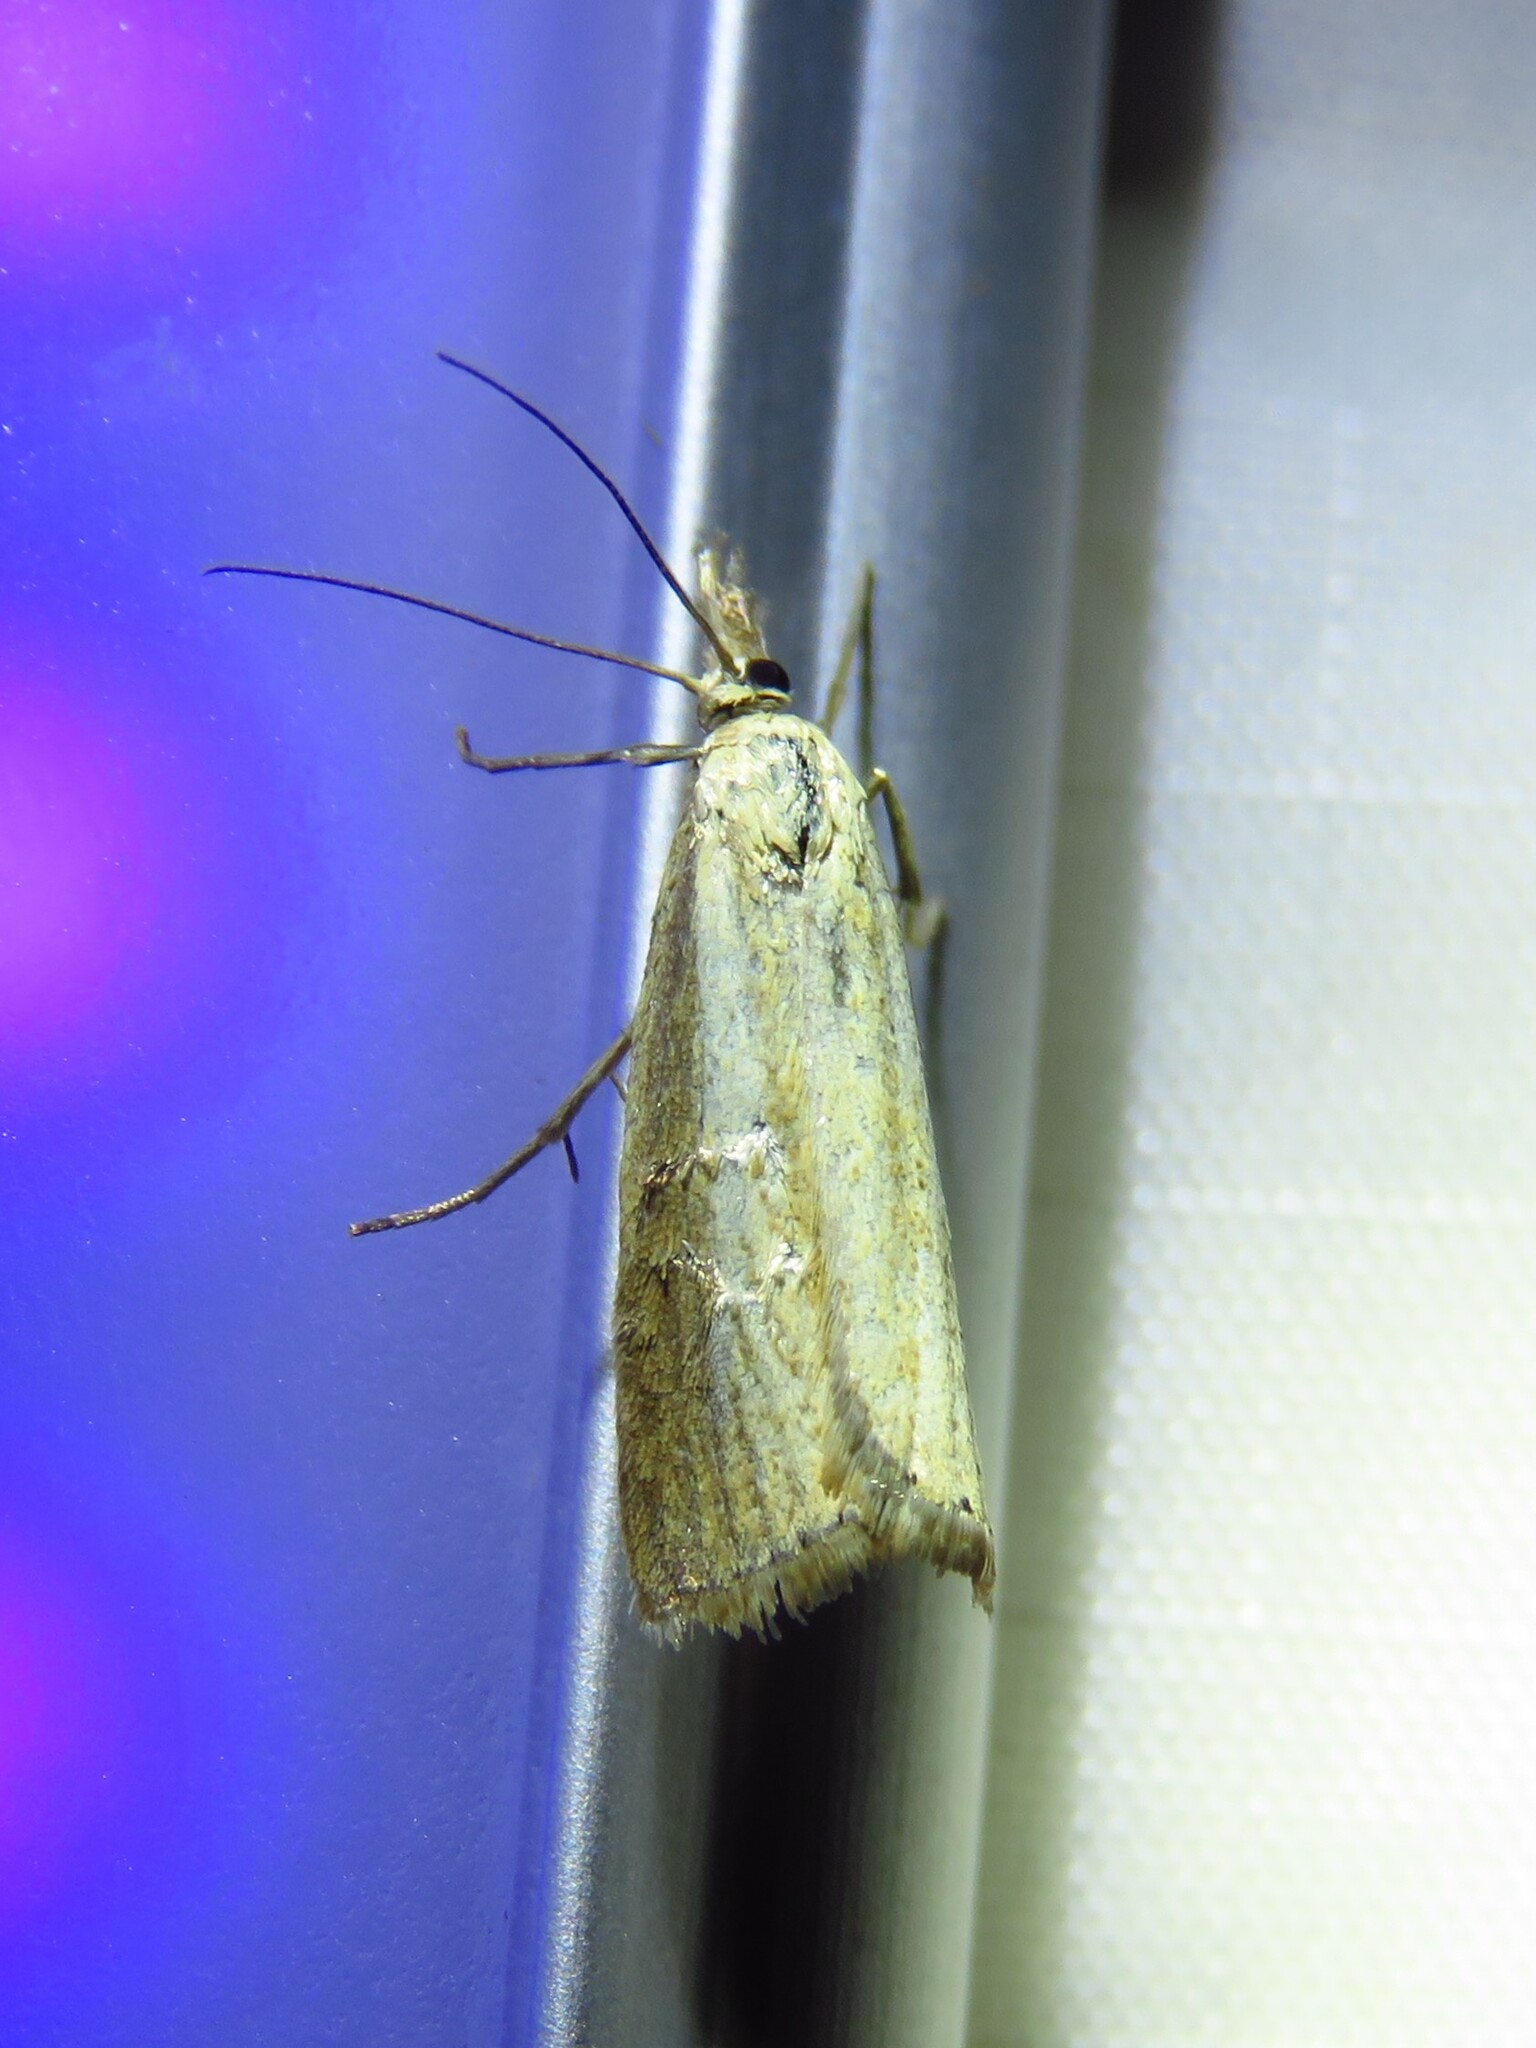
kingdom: Animalia
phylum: Arthropoda
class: Insecta
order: Lepidoptera
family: Crambidae
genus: Agriphila
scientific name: Agriphila straminella
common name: Straw grass-veneer
